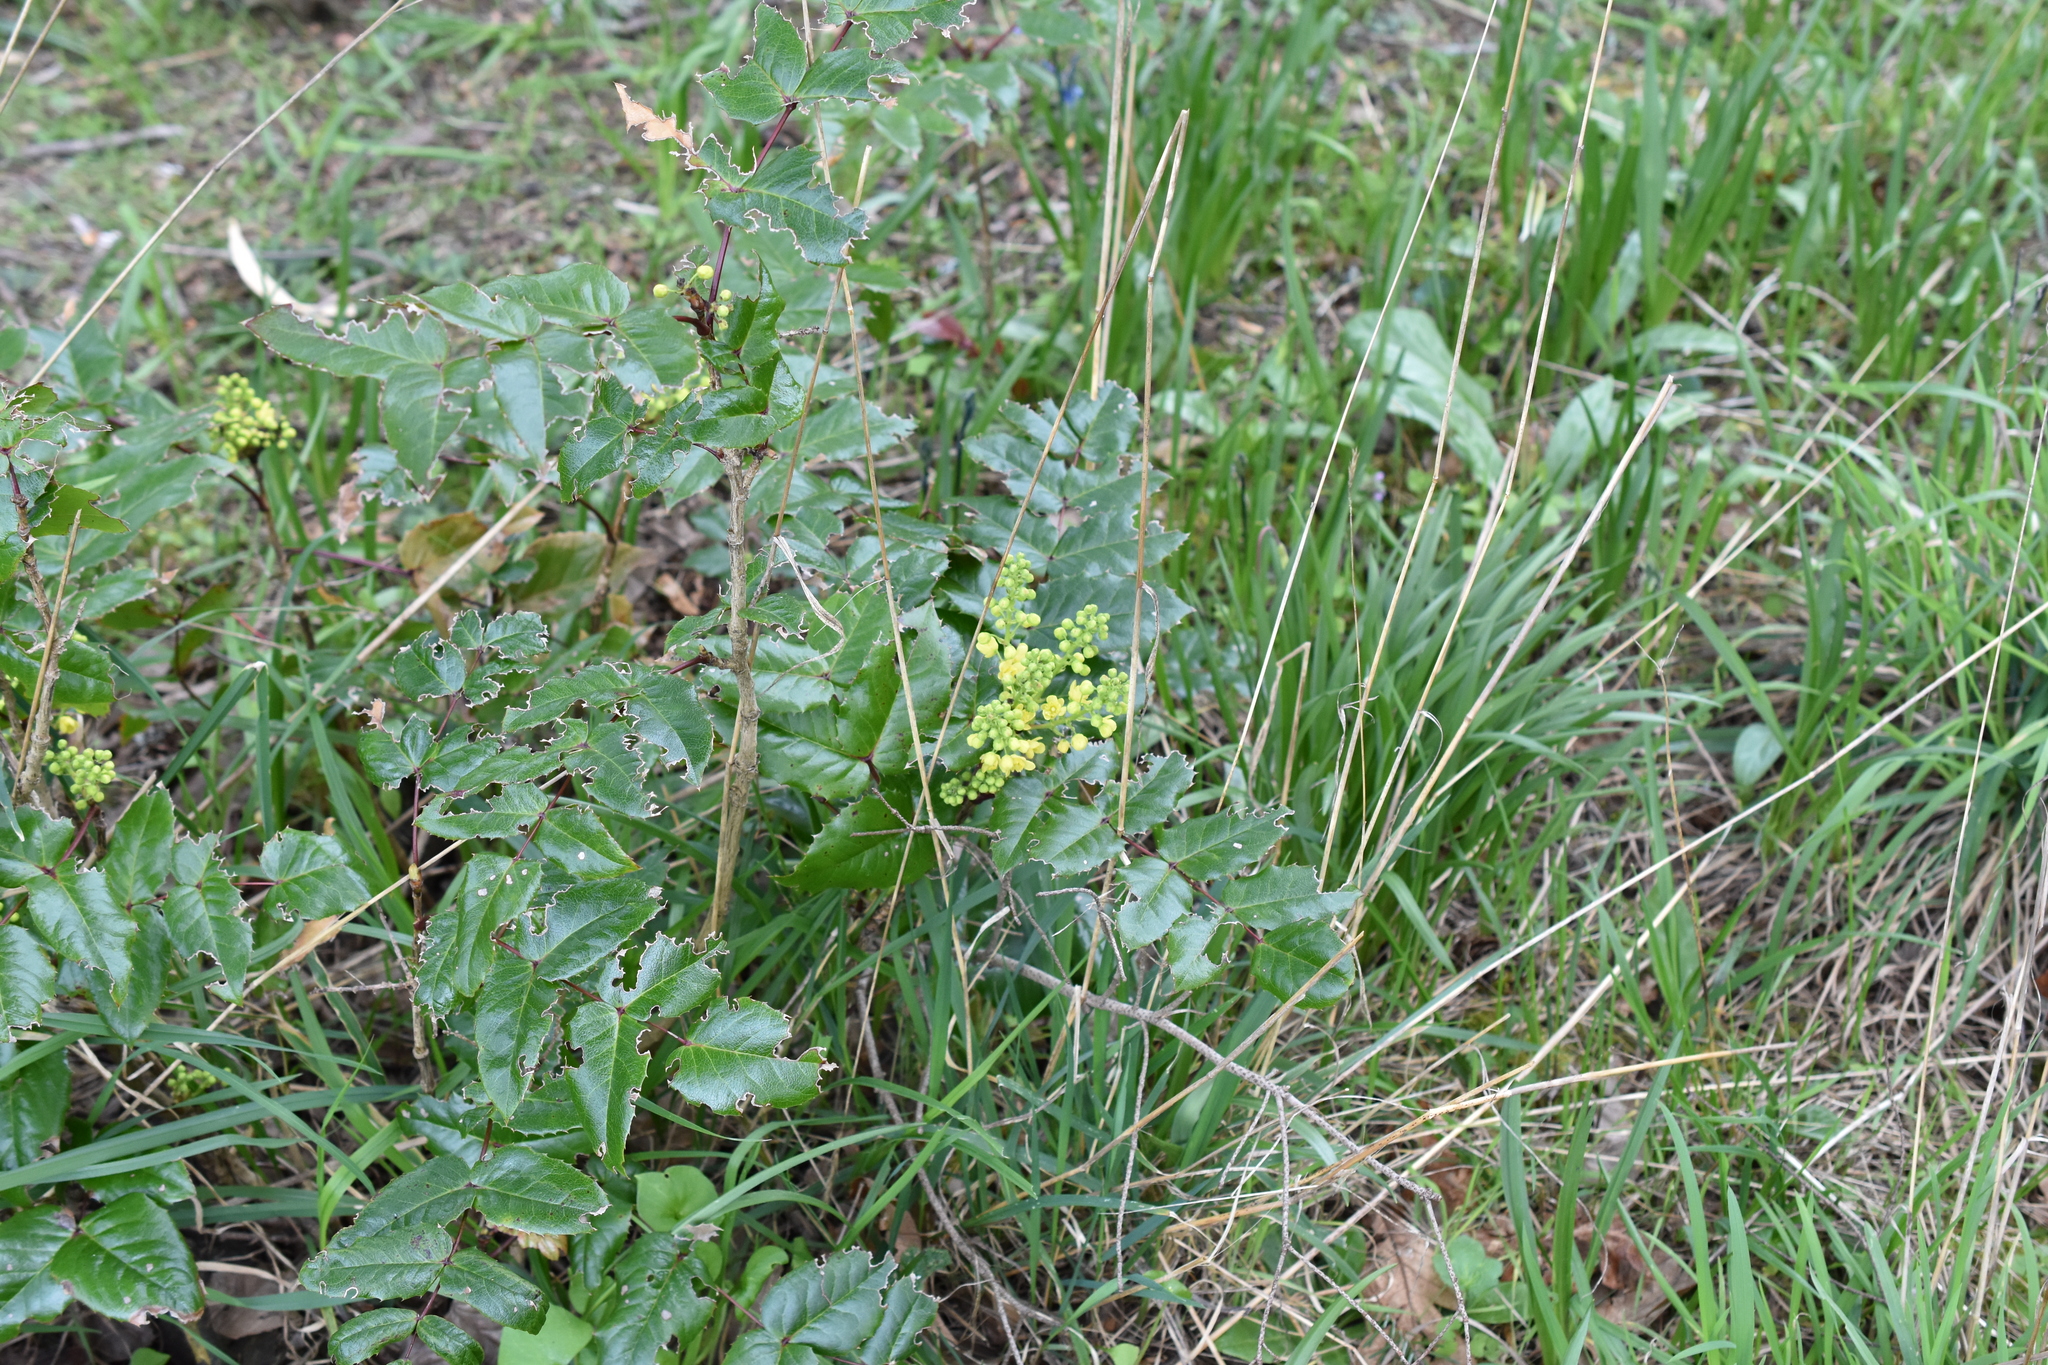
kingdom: Plantae
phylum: Tracheophyta
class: Magnoliopsida
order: Ranunculales
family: Berberidaceae
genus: Mahonia
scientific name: Mahonia aquifolium
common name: Oregon-grape
